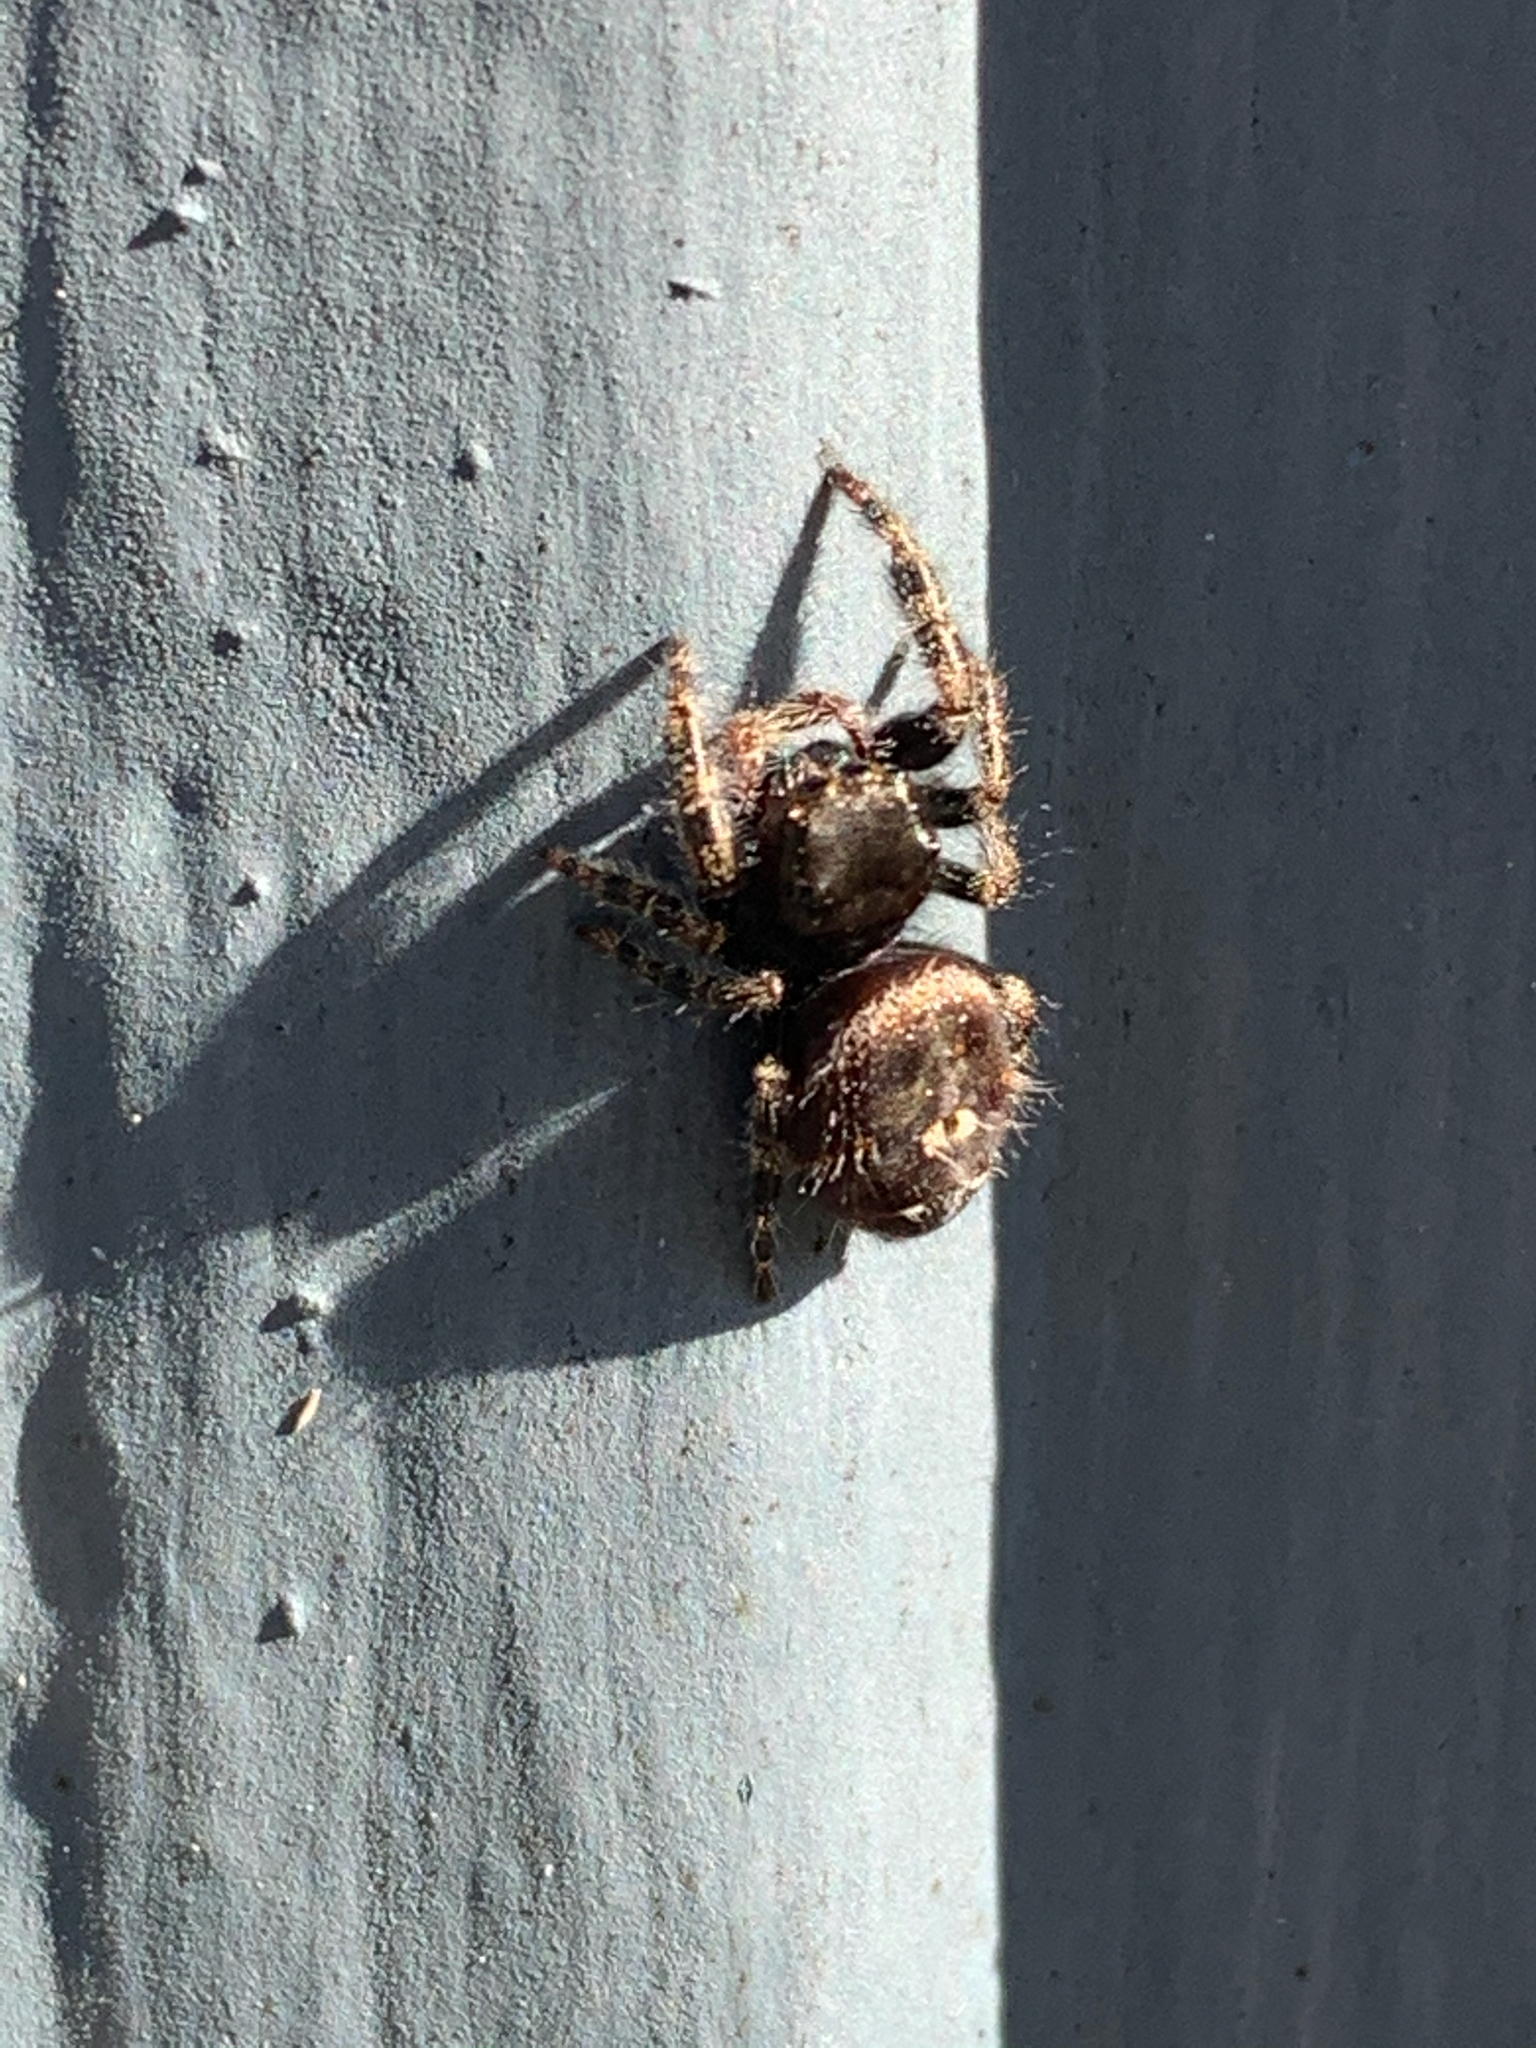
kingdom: Animalia
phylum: Arthropoda
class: Arachnida
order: Araneae
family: Salticidae
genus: Phidippus
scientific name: Phidippus audax
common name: Bold jumper
